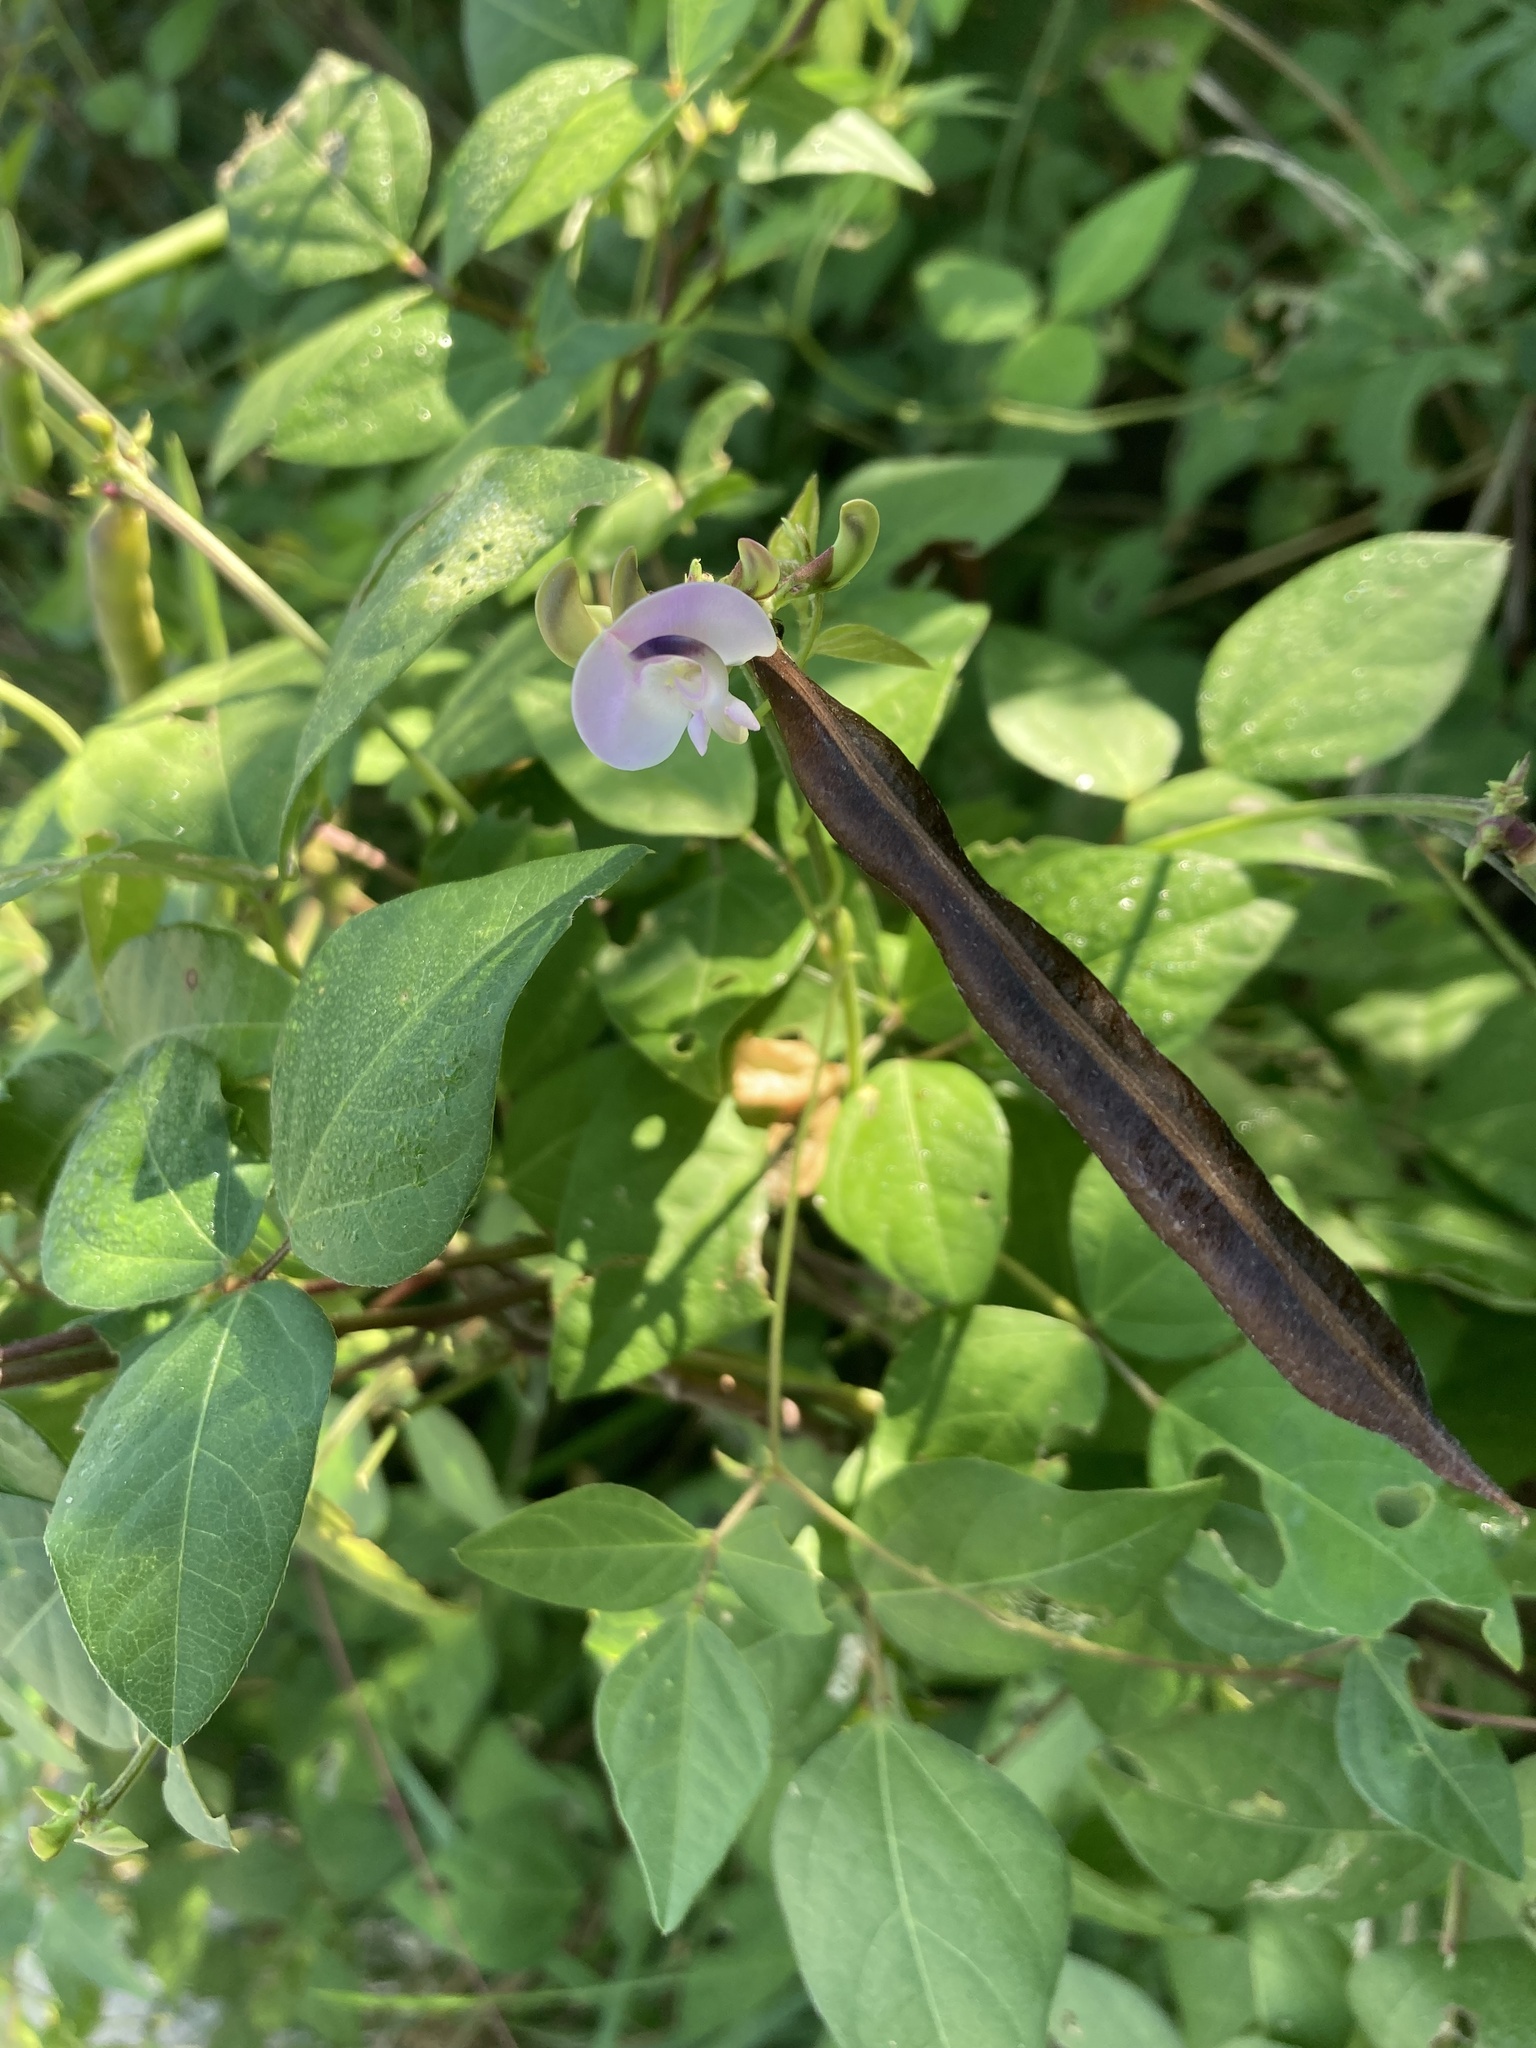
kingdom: Plantae
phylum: Tracheophyta
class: Magnoliopsida
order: Fabales
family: Fabaceae
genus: Strophostyles
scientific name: Strophostyles helvola
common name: Trailing wild bean
